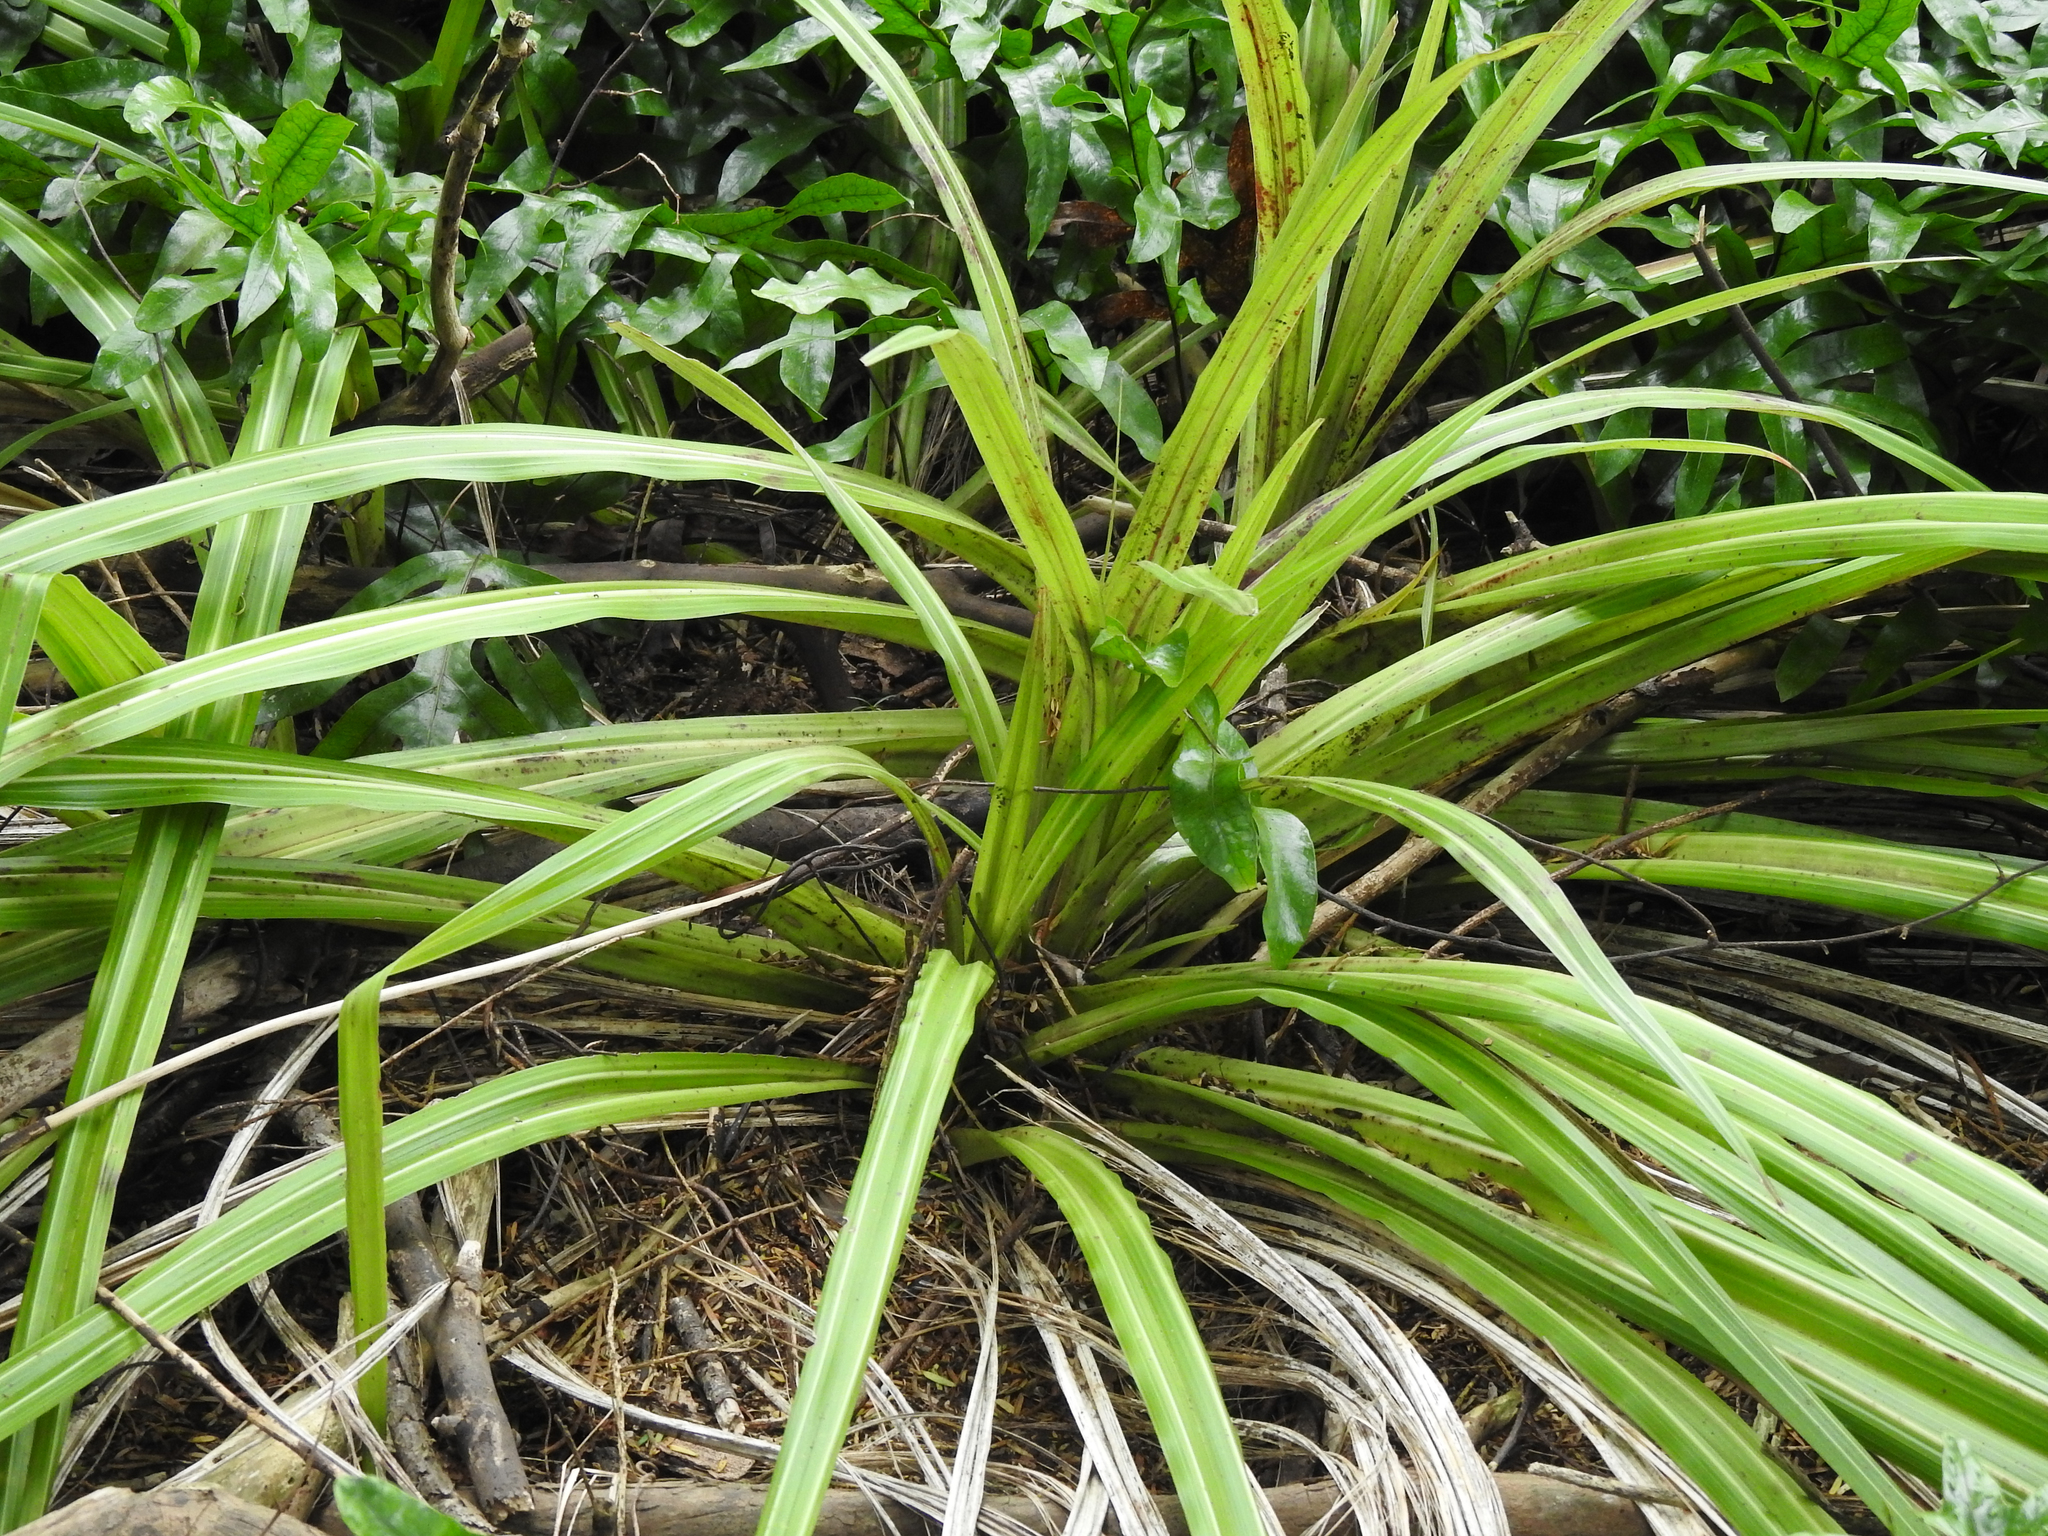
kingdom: Plantae
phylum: Tracheophyta
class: Liliopsida
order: Asparagales
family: Asteliaceae
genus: Astelia
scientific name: Astelia fragrans
